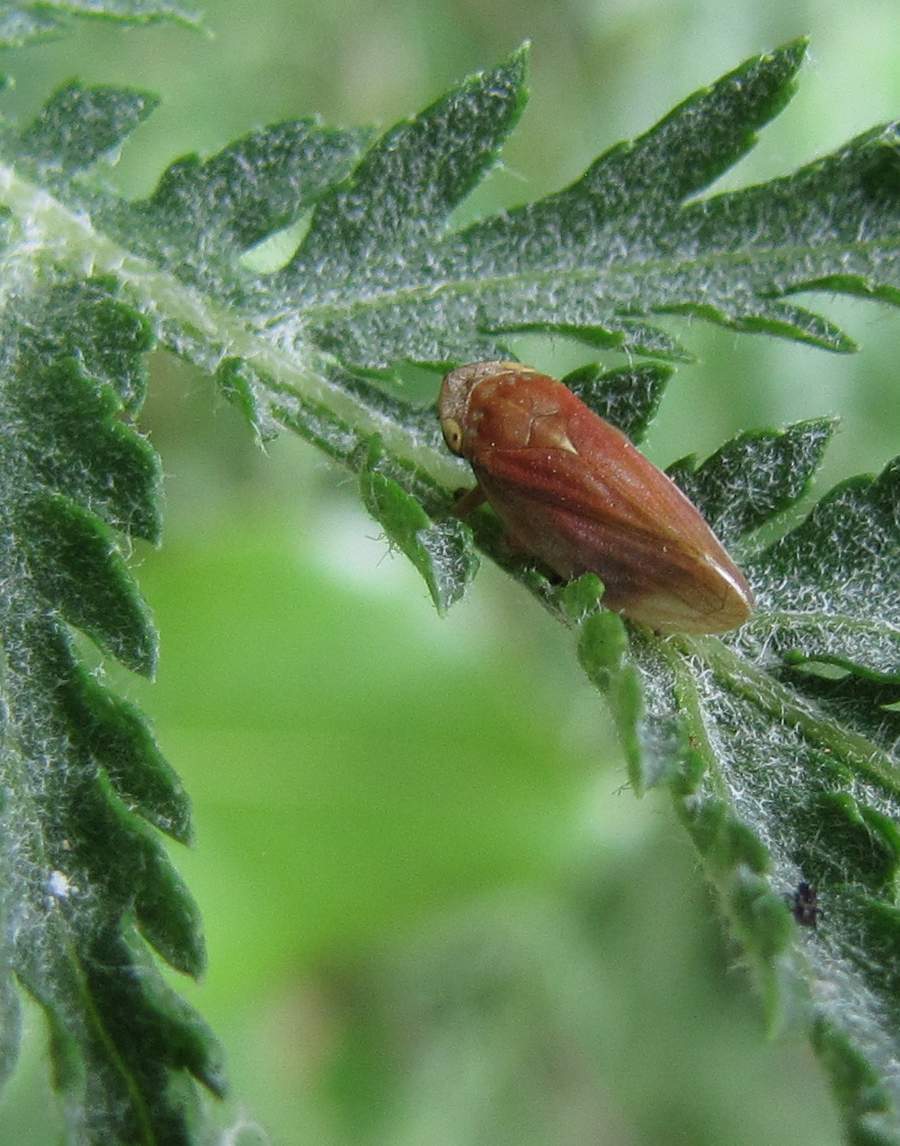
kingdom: Animalia
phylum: Arthropoda
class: Insecta
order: Hemiptera
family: Aphrophoridae
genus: Philaenus
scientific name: Philaenus spumarius
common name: Meadow spittlebug
